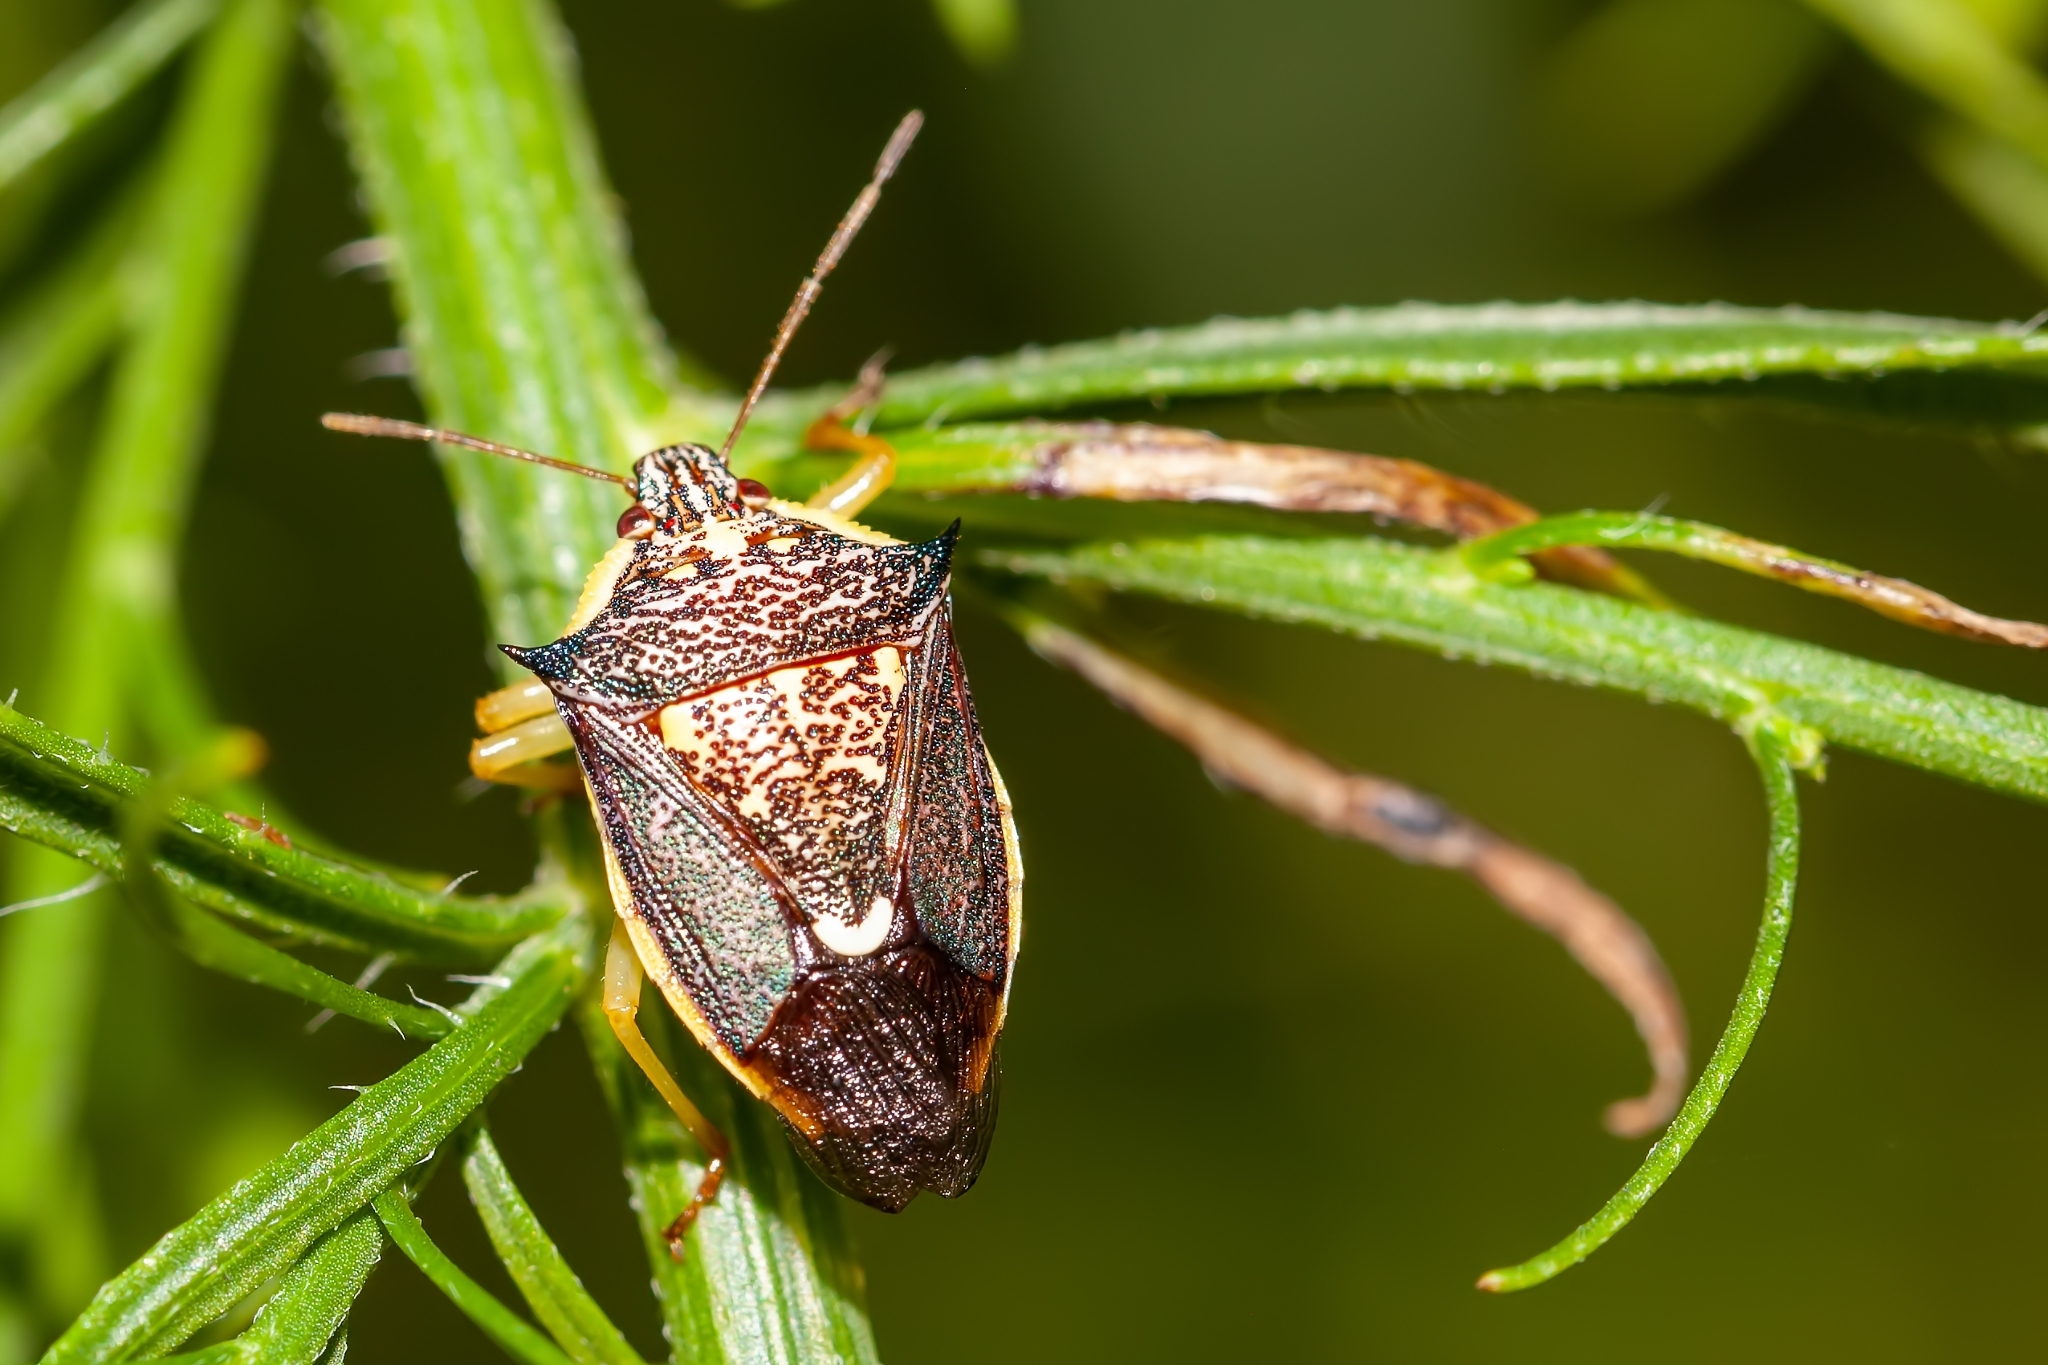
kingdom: Animalia
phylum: Arthropoda
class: Insecta
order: Hemiptera
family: Pentatomidae
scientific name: Pentatomidae
